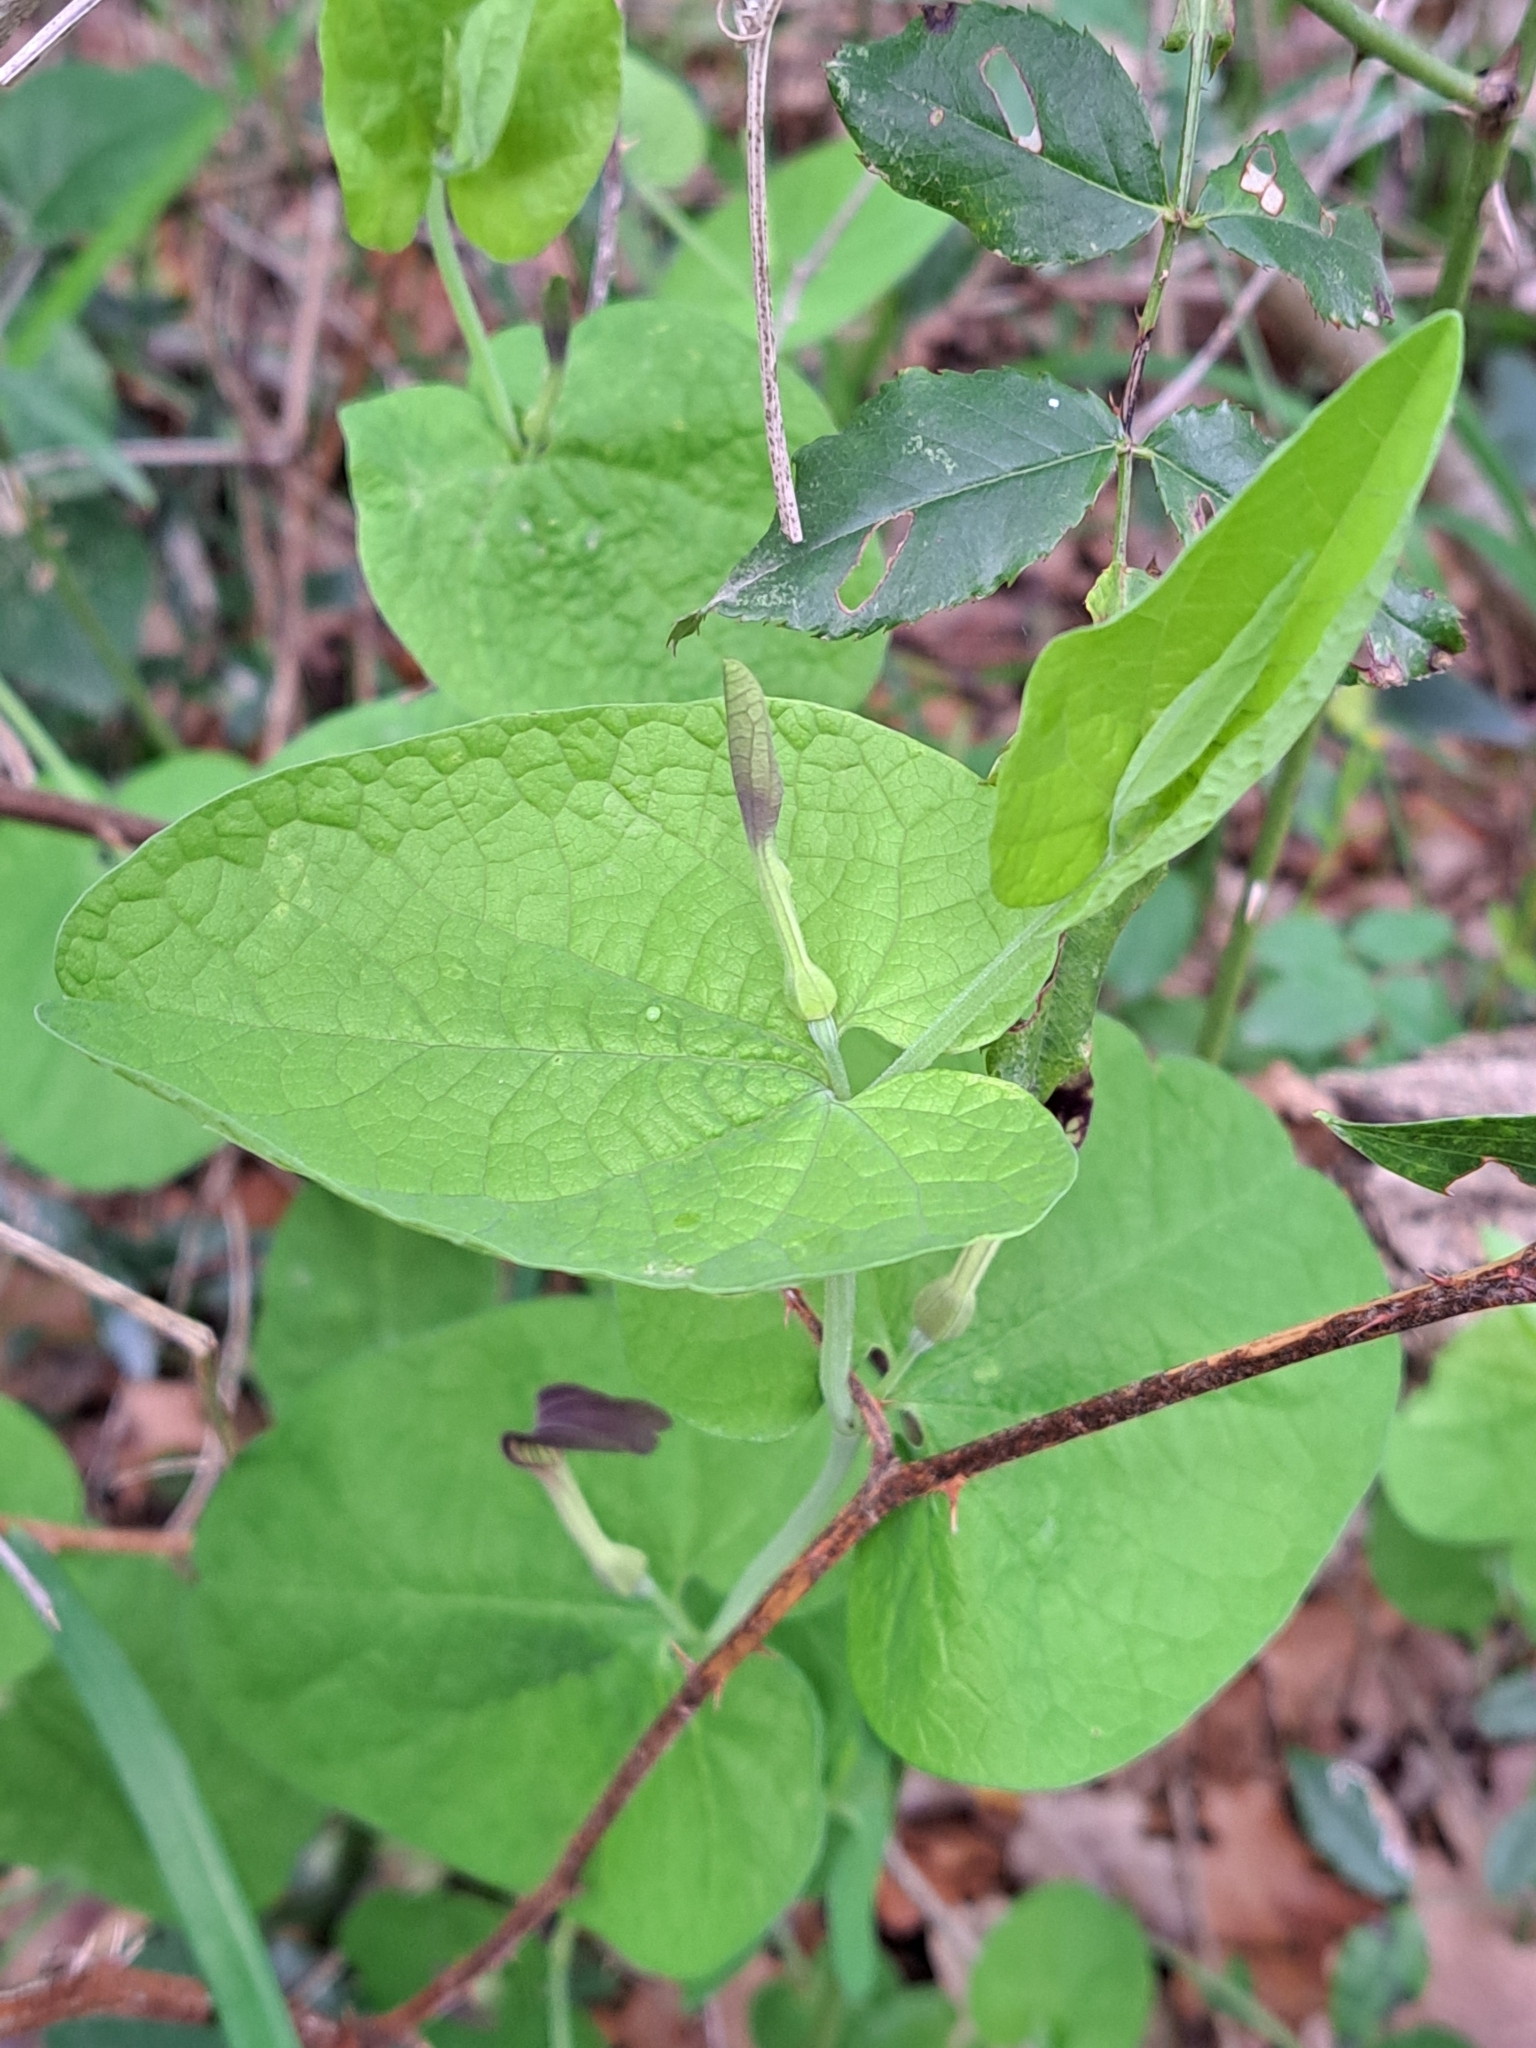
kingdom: Plantae
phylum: Tracheophyta
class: Magnoliopsida
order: Piperales
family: Aristolochiaceae
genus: Aristolochia
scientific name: Aristolochia rotunda
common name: Smearwort
